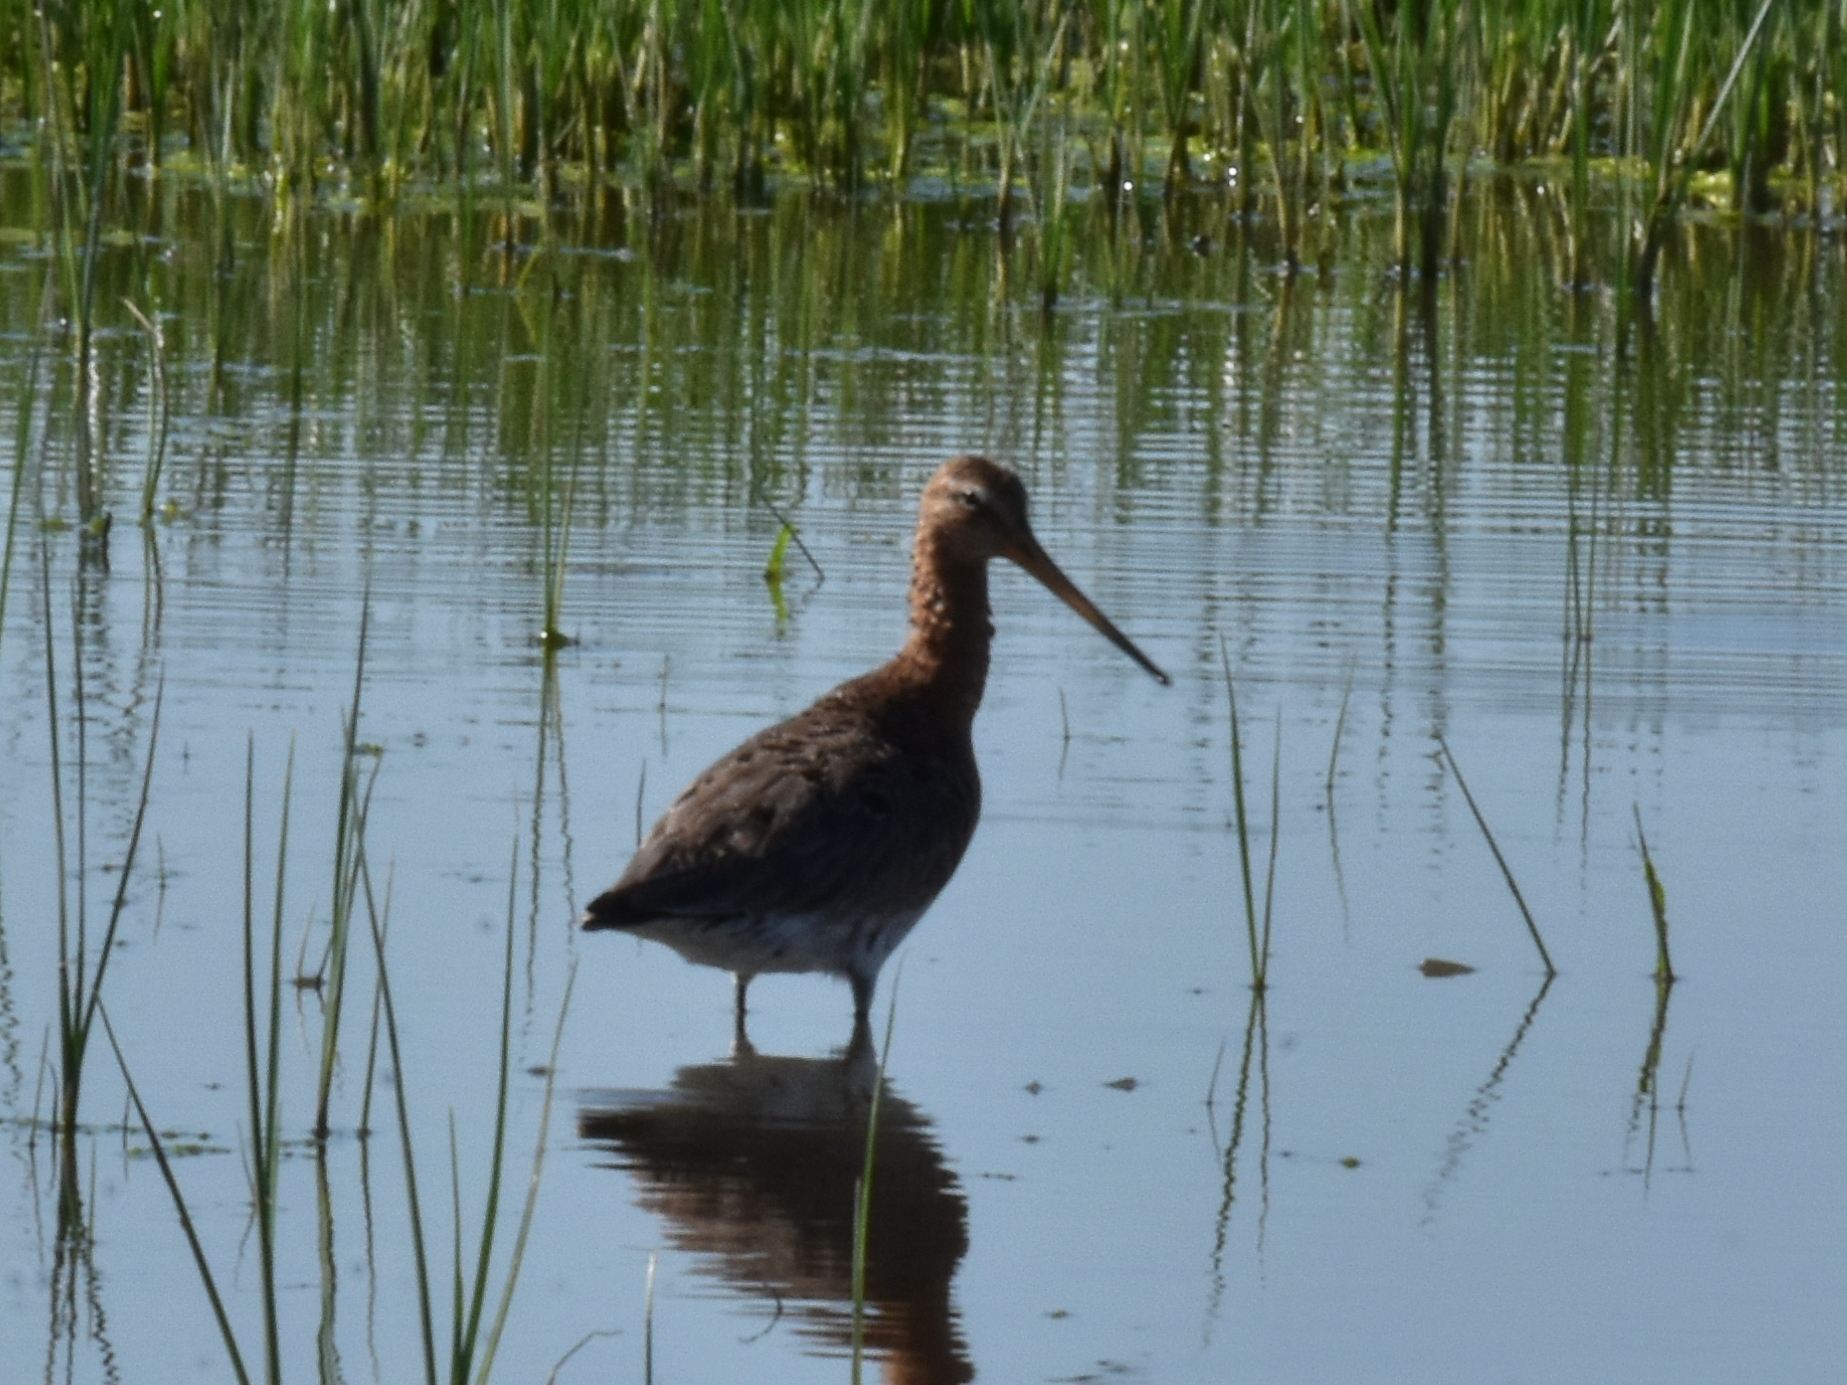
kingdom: Animalia
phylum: Chordata
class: Aves
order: Charadriiformes
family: Scolopacidae
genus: Limosa
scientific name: Limosa limosa
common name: Black-tailed godwit
